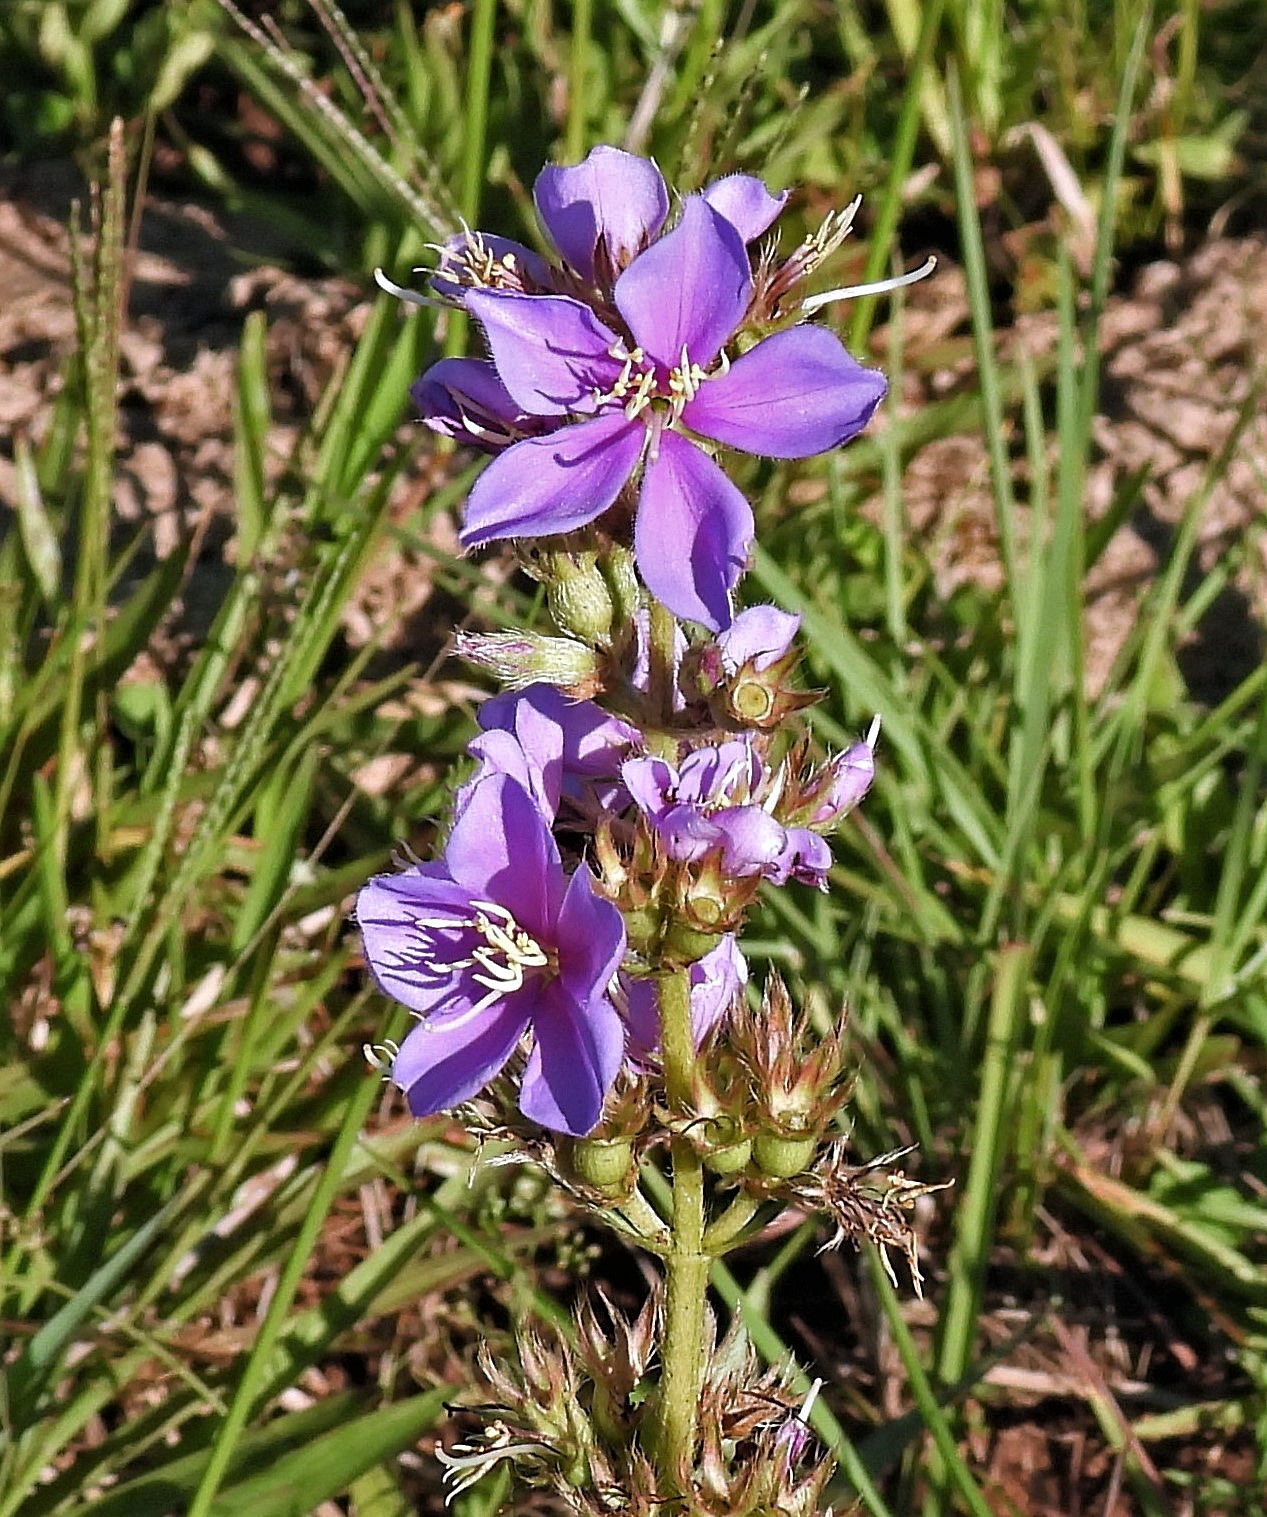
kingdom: Plantae
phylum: Tracheophyta
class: Magnoliopsida
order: Myrtales
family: Melastomataceae
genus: Chaetogastra
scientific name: Chaetogastra gracilis
